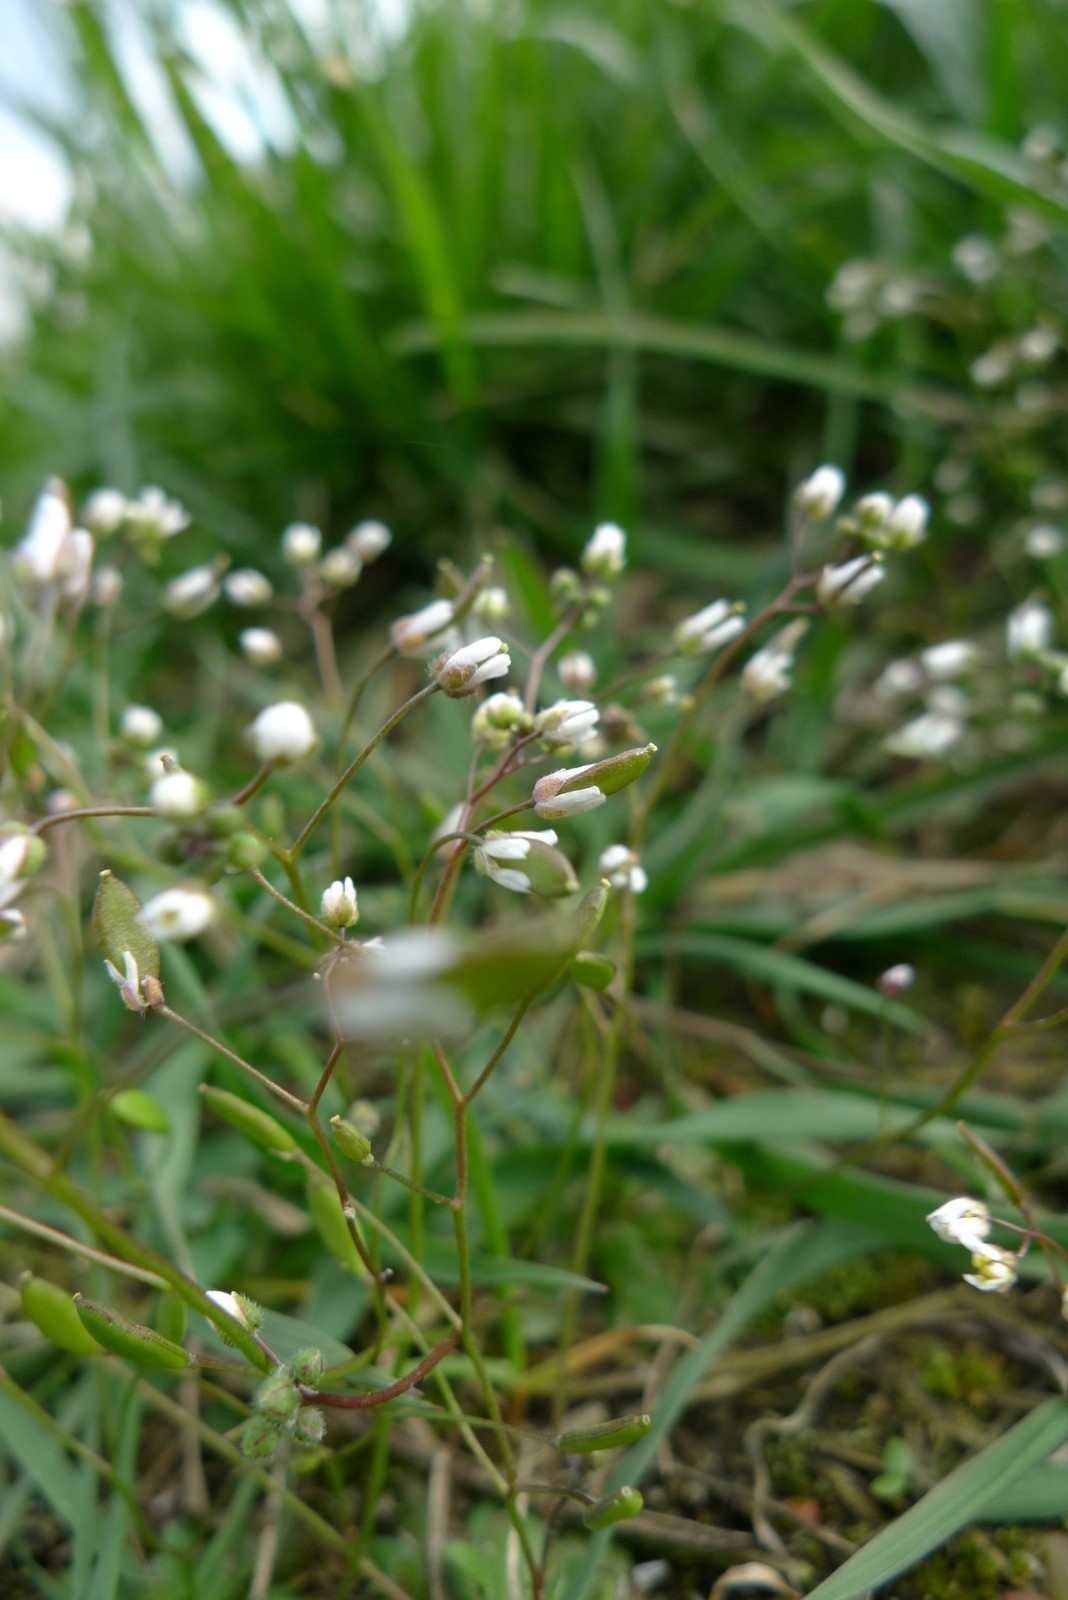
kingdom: Plantae
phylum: Tracheophyta
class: Magnoliopsida
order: Brassicales
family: Brassicaceae
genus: Draba
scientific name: Draba verna
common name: Spring draba
